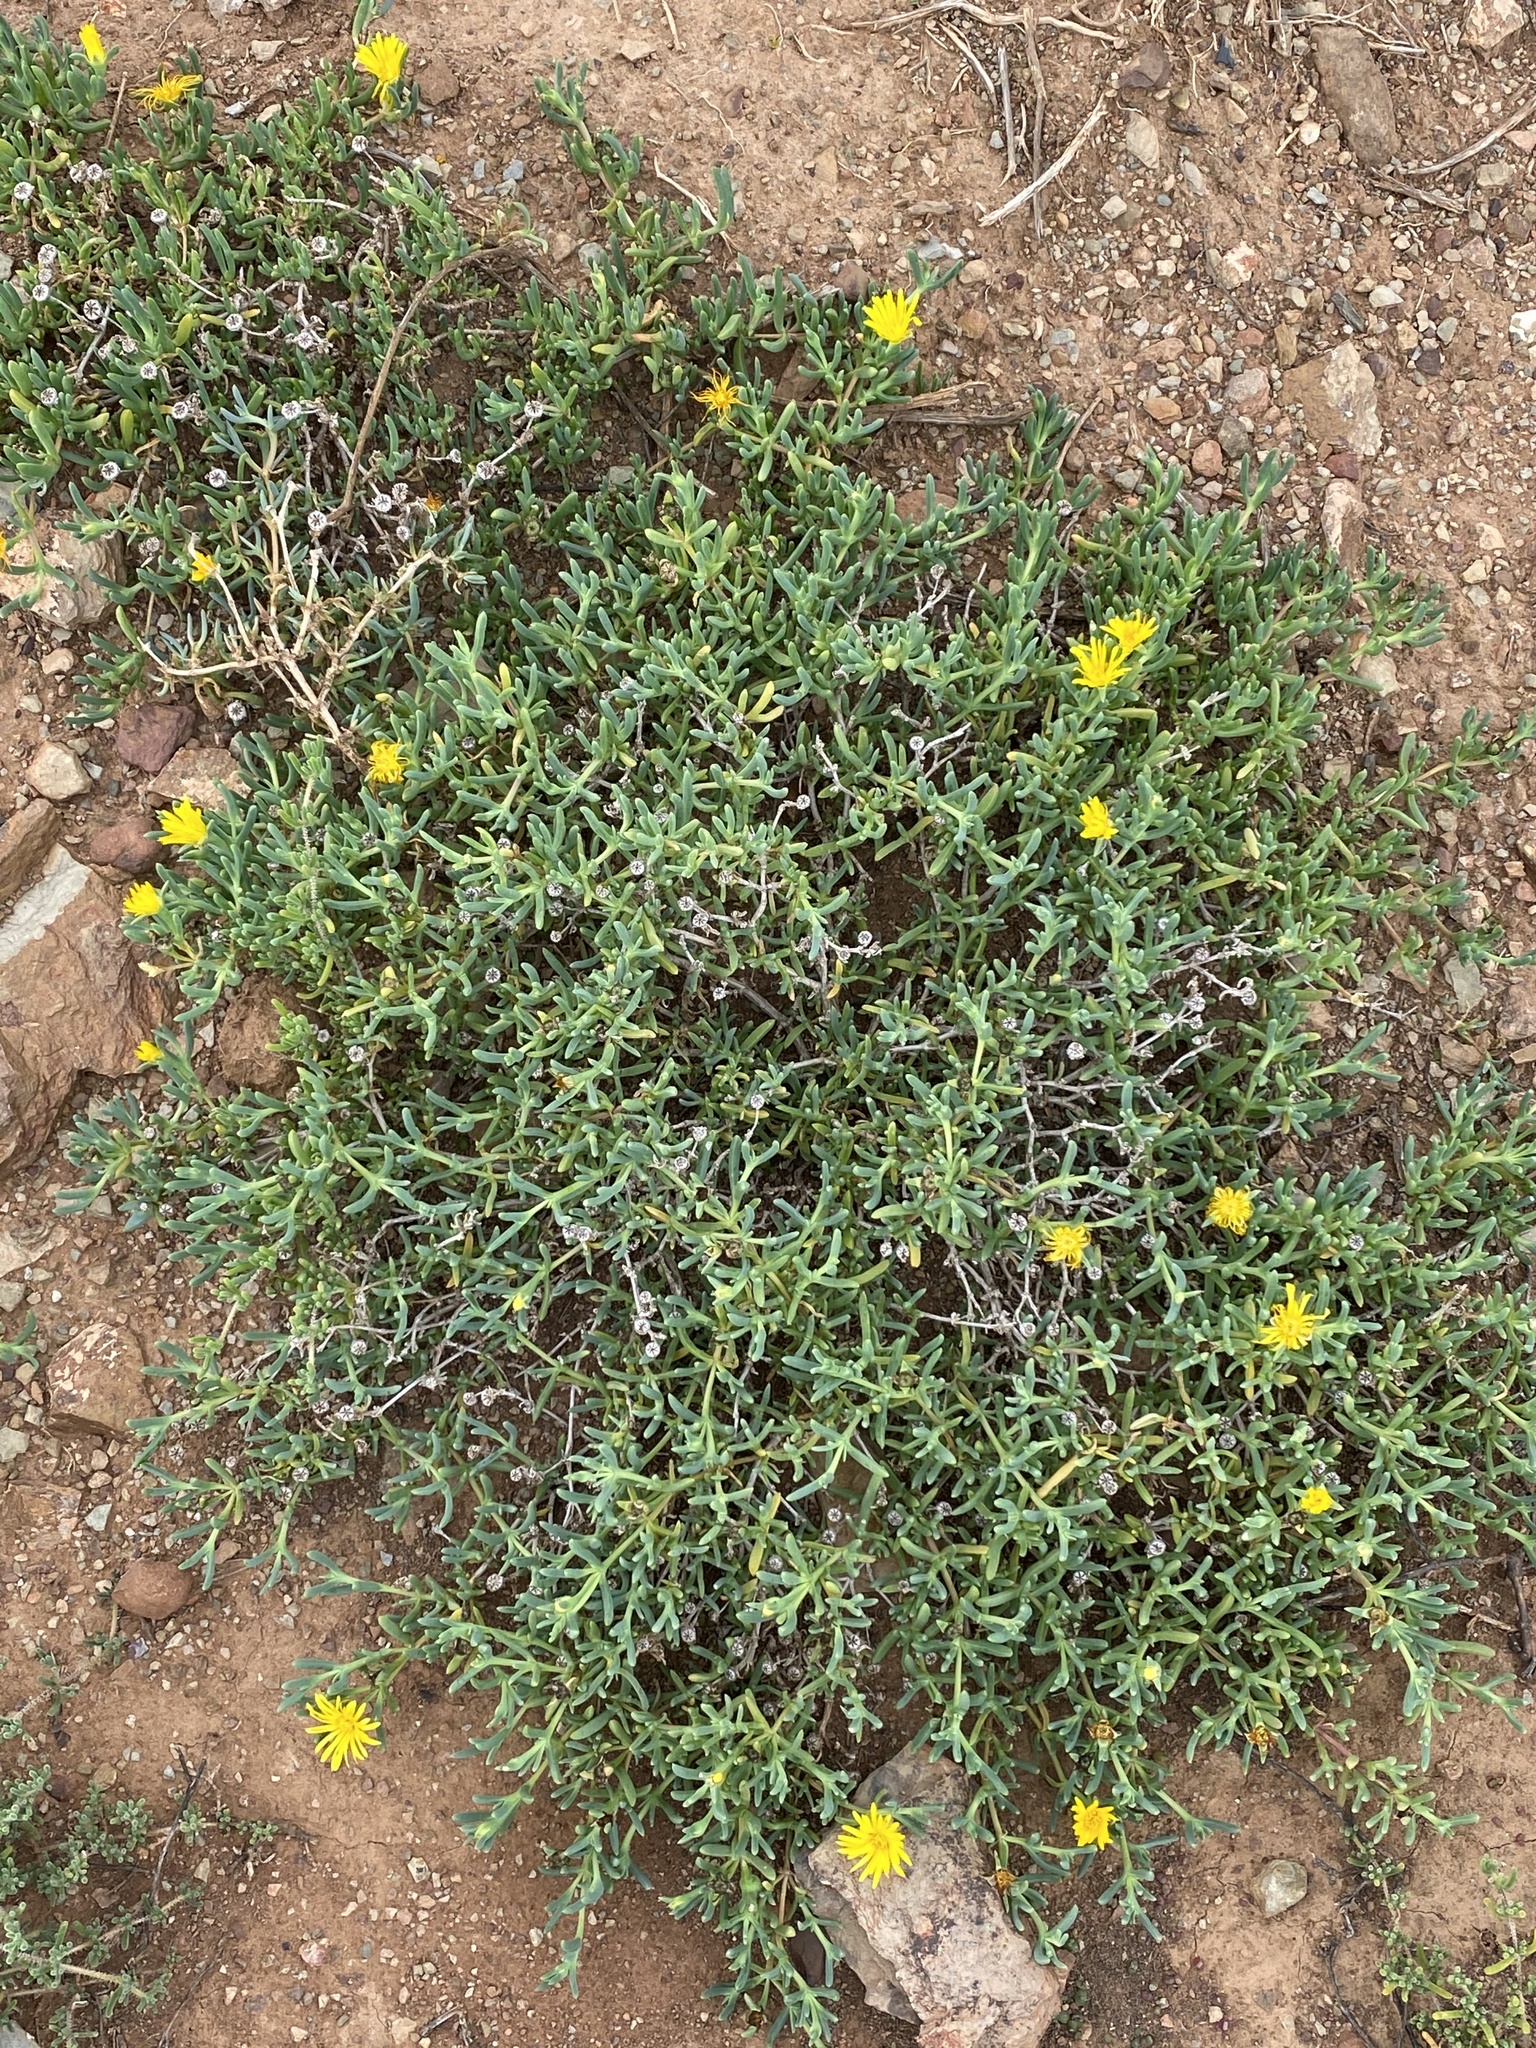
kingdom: Plantae
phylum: Tracheophyta
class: Magnoliopsida
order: Caryophyllales
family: Aizoaceae
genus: Malephora
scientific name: Malephora lutea
